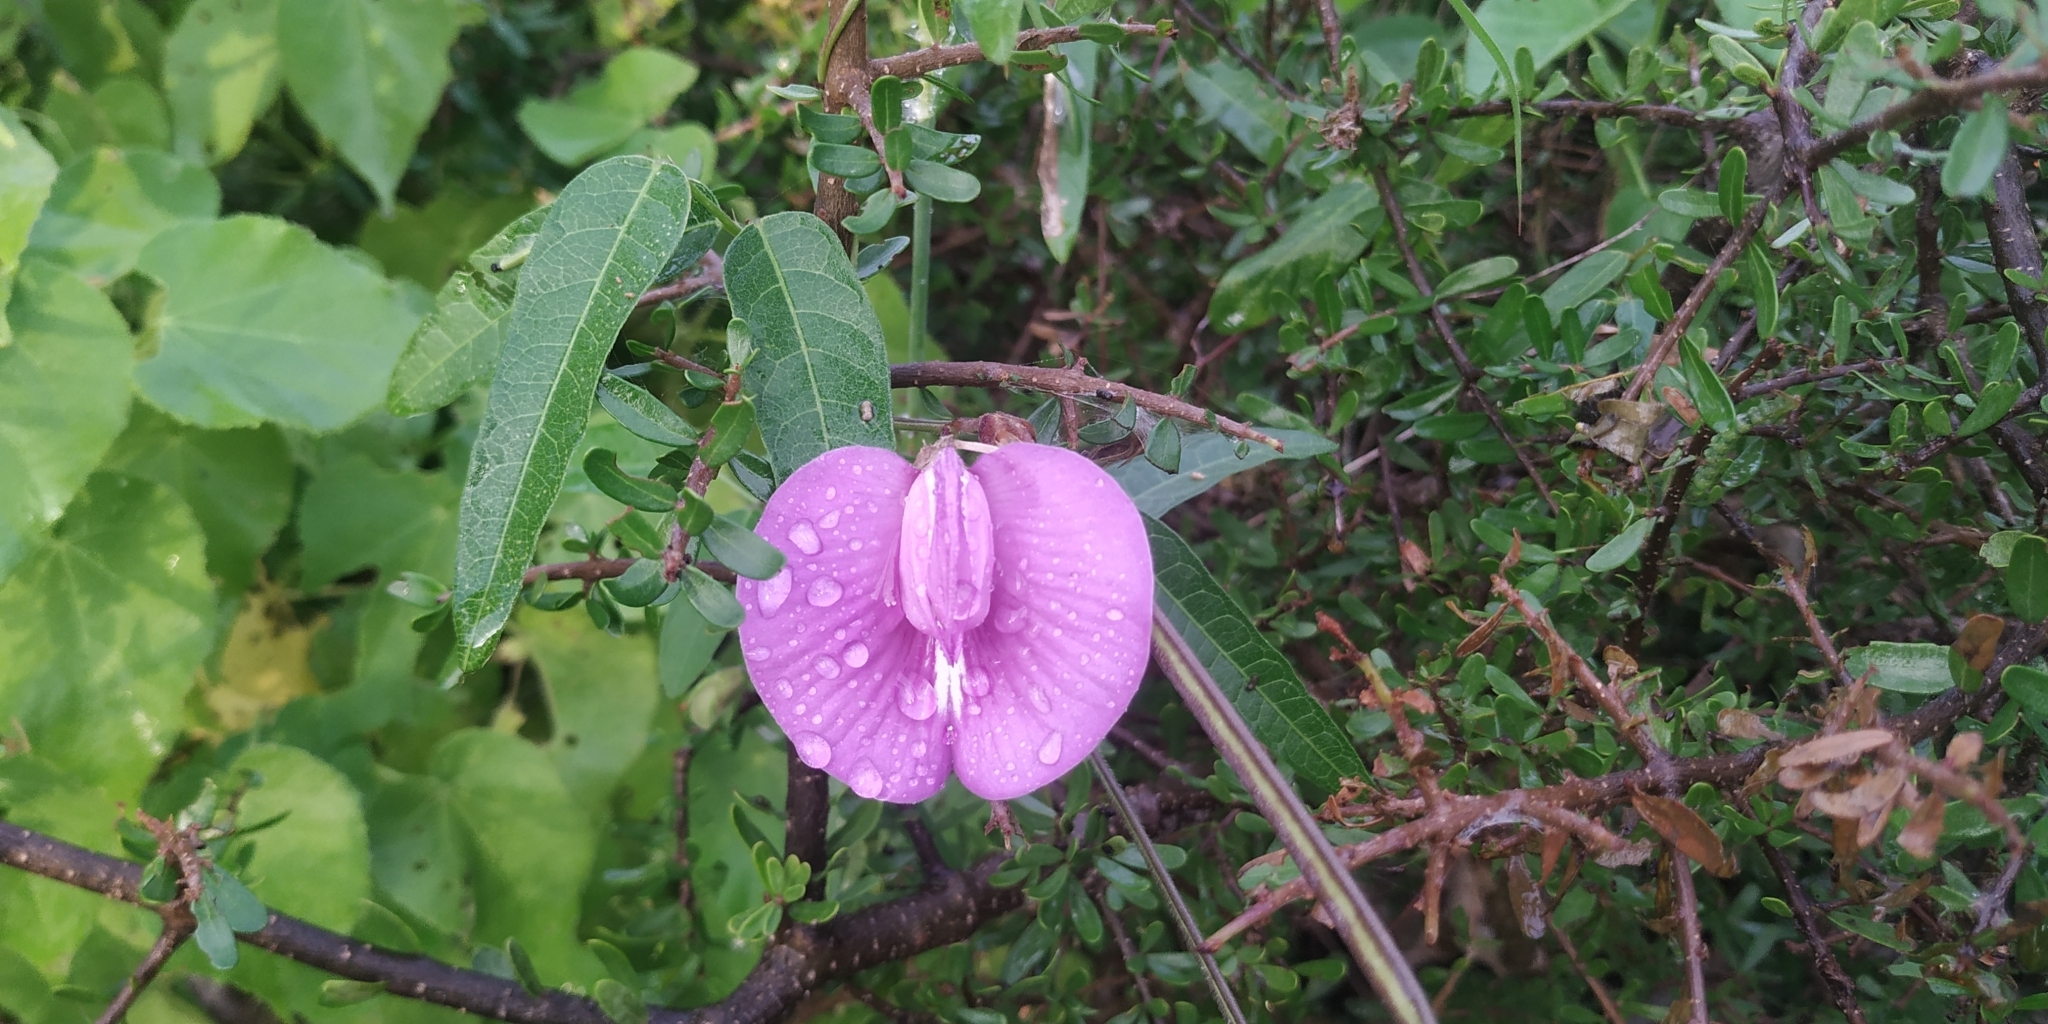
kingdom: Plantae
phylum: Tracheophyta
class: Magnoliopsida
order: Fabales
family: Fabaceae
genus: Centrosema
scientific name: Centrosema virginianum
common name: Butterfly-pea
